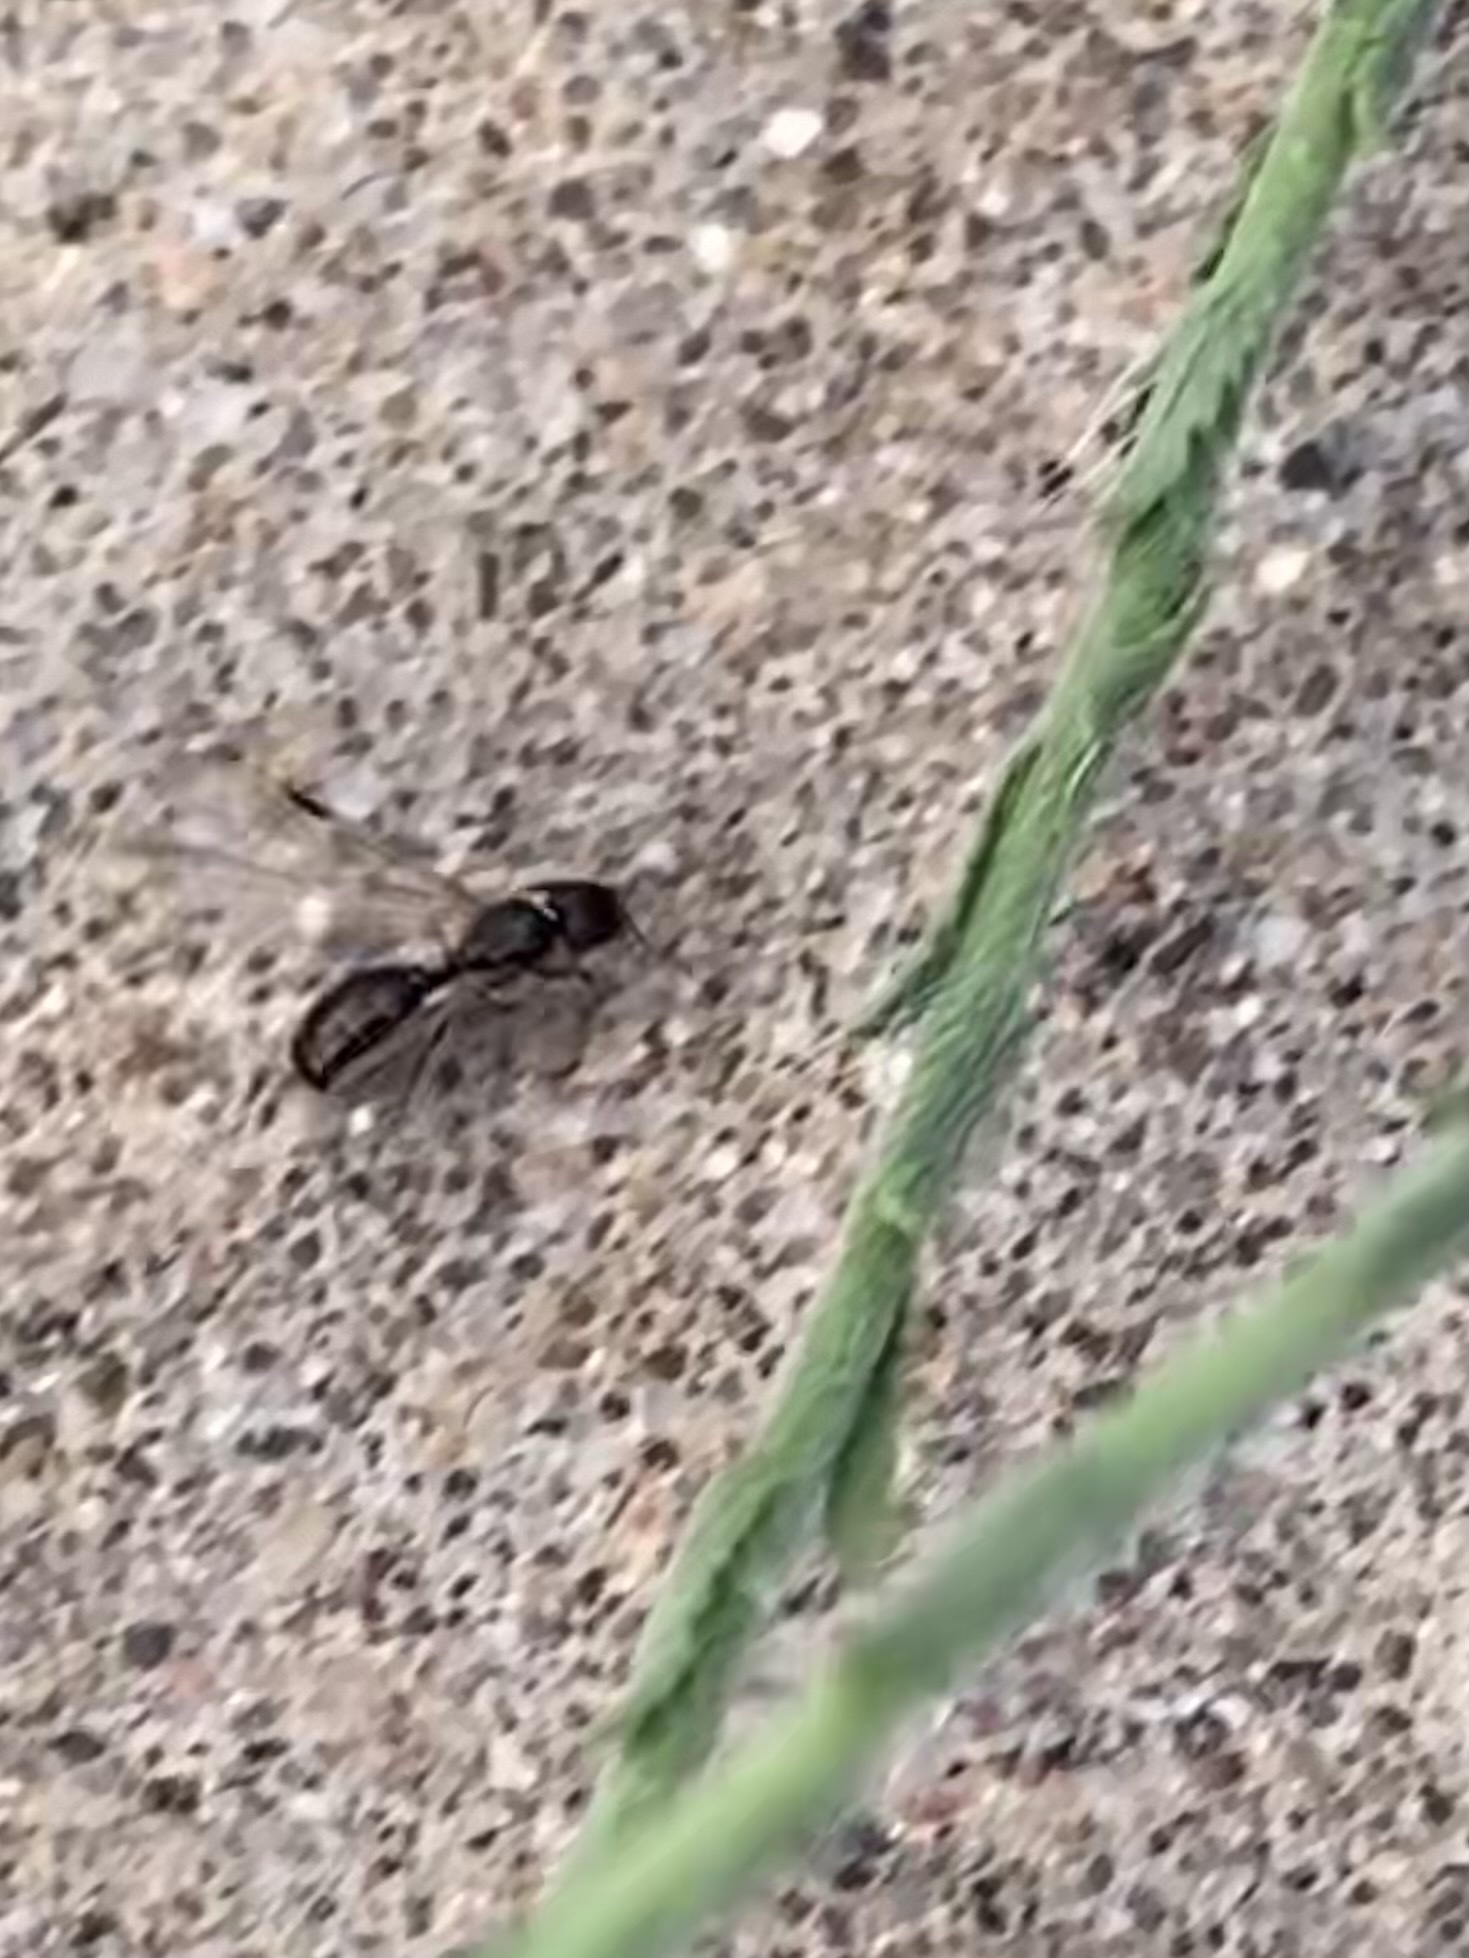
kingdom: Animalia
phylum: Arthropoda
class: Insecta
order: Hymenoptera
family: Formicidae
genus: Pheidole
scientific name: Pheidole
